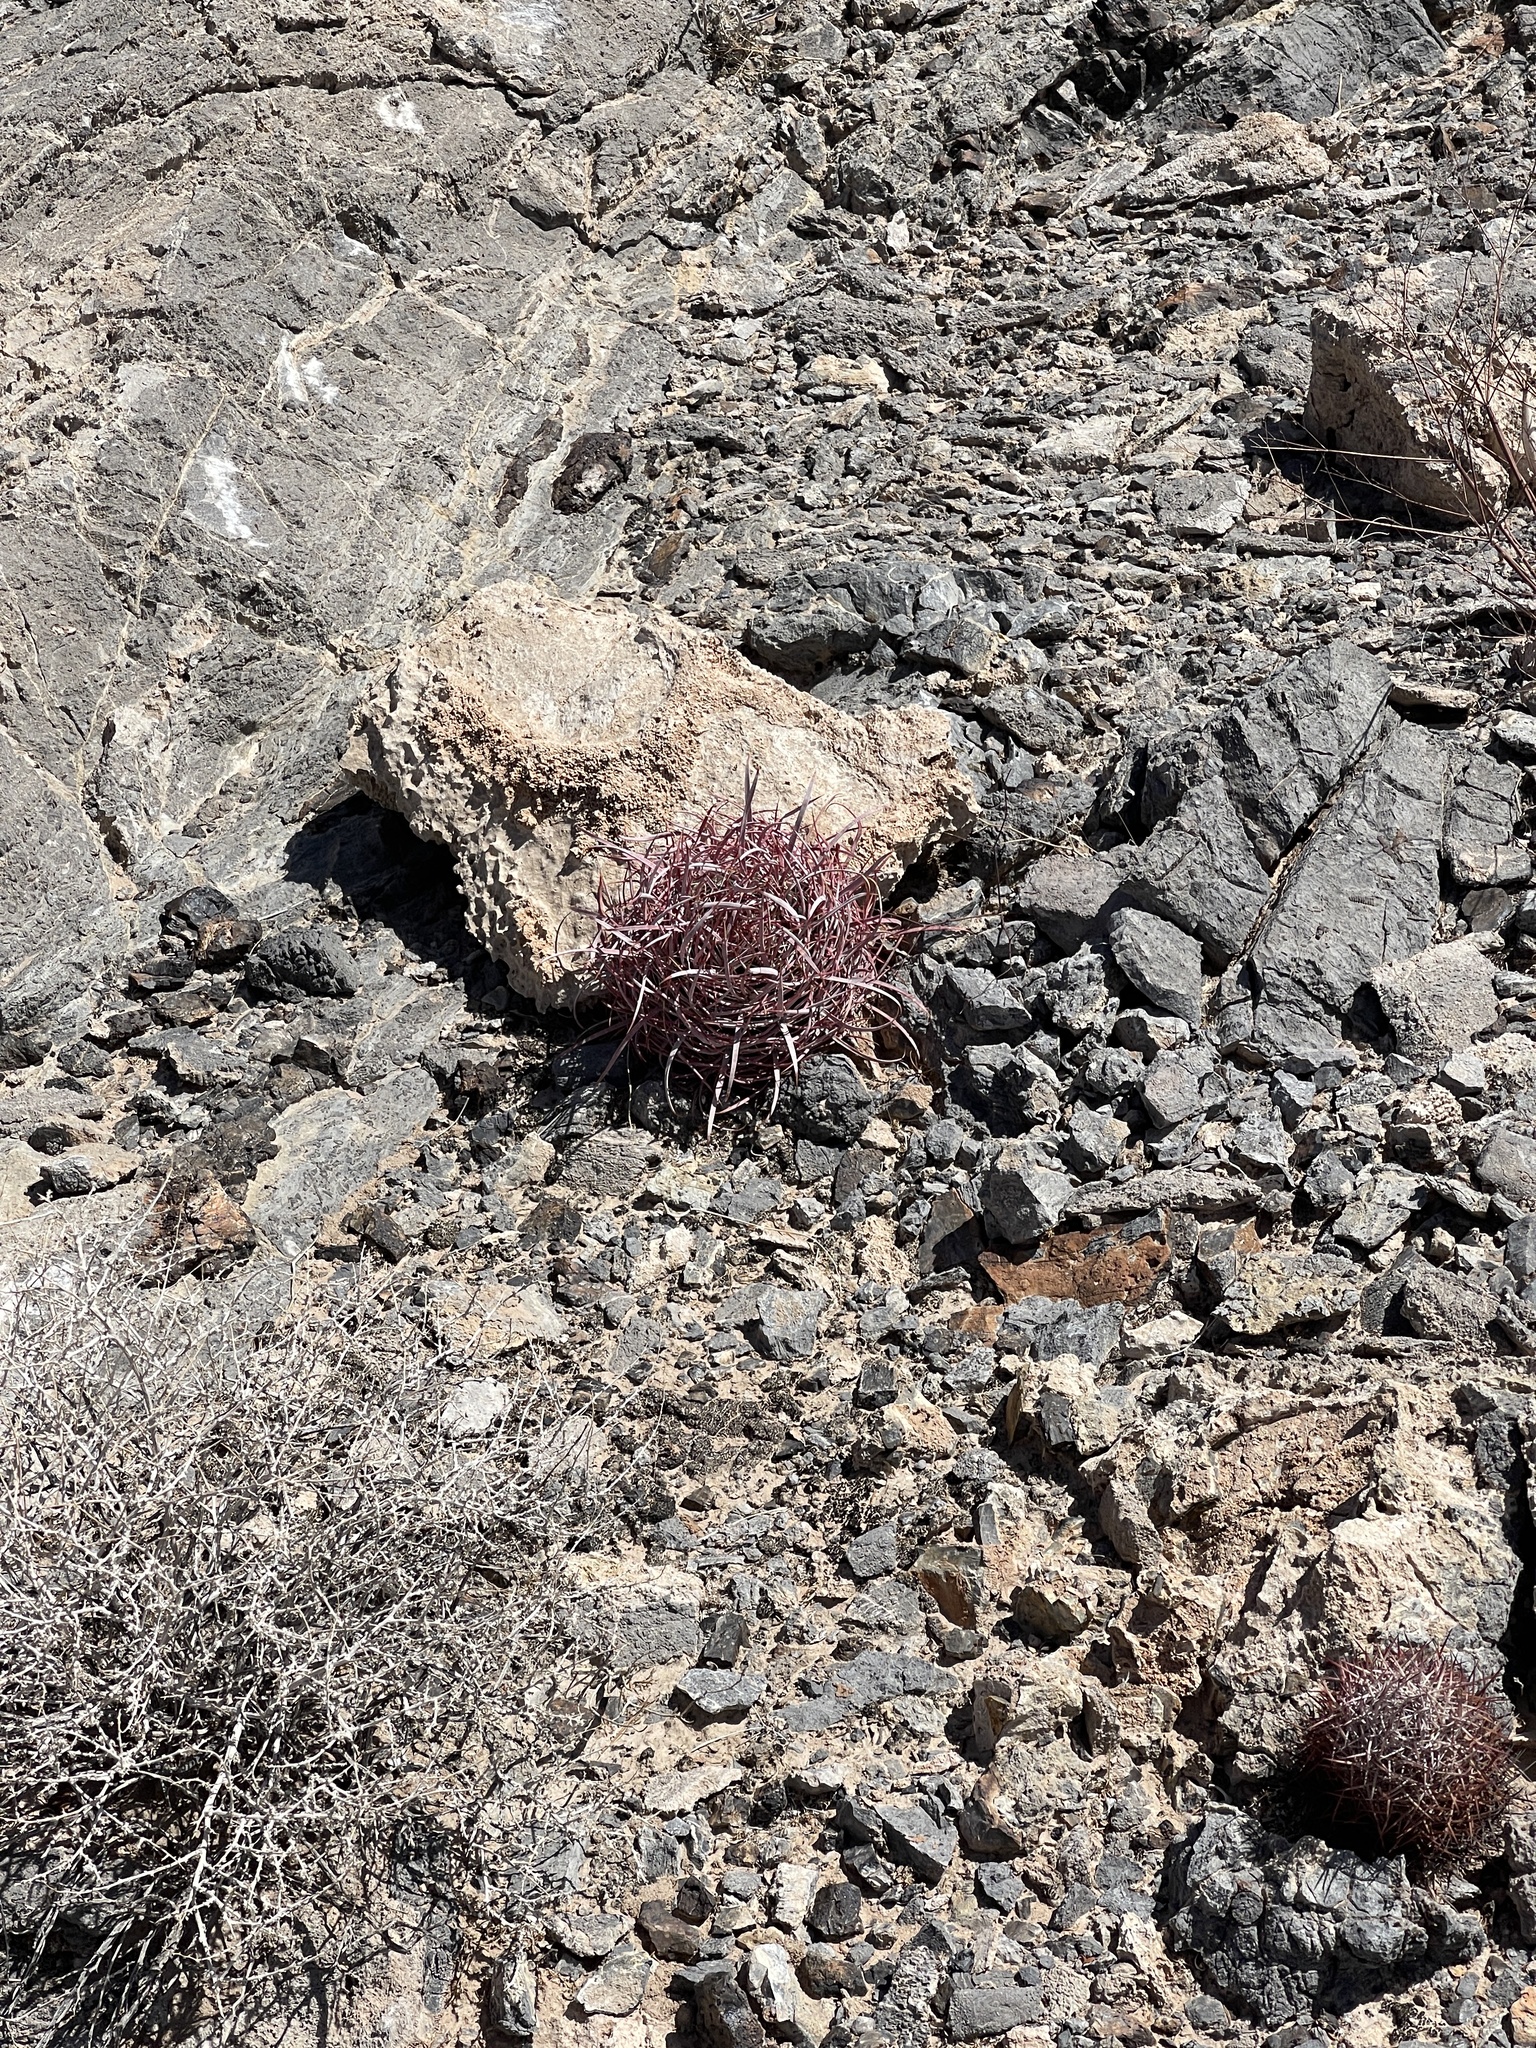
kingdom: Plantae
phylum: Tracheophyta
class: Magnoliopsida
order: Caryophyllales
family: Cactaceae
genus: Ferocactus
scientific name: Ferocactus cylindraceus
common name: California barrel cactus
